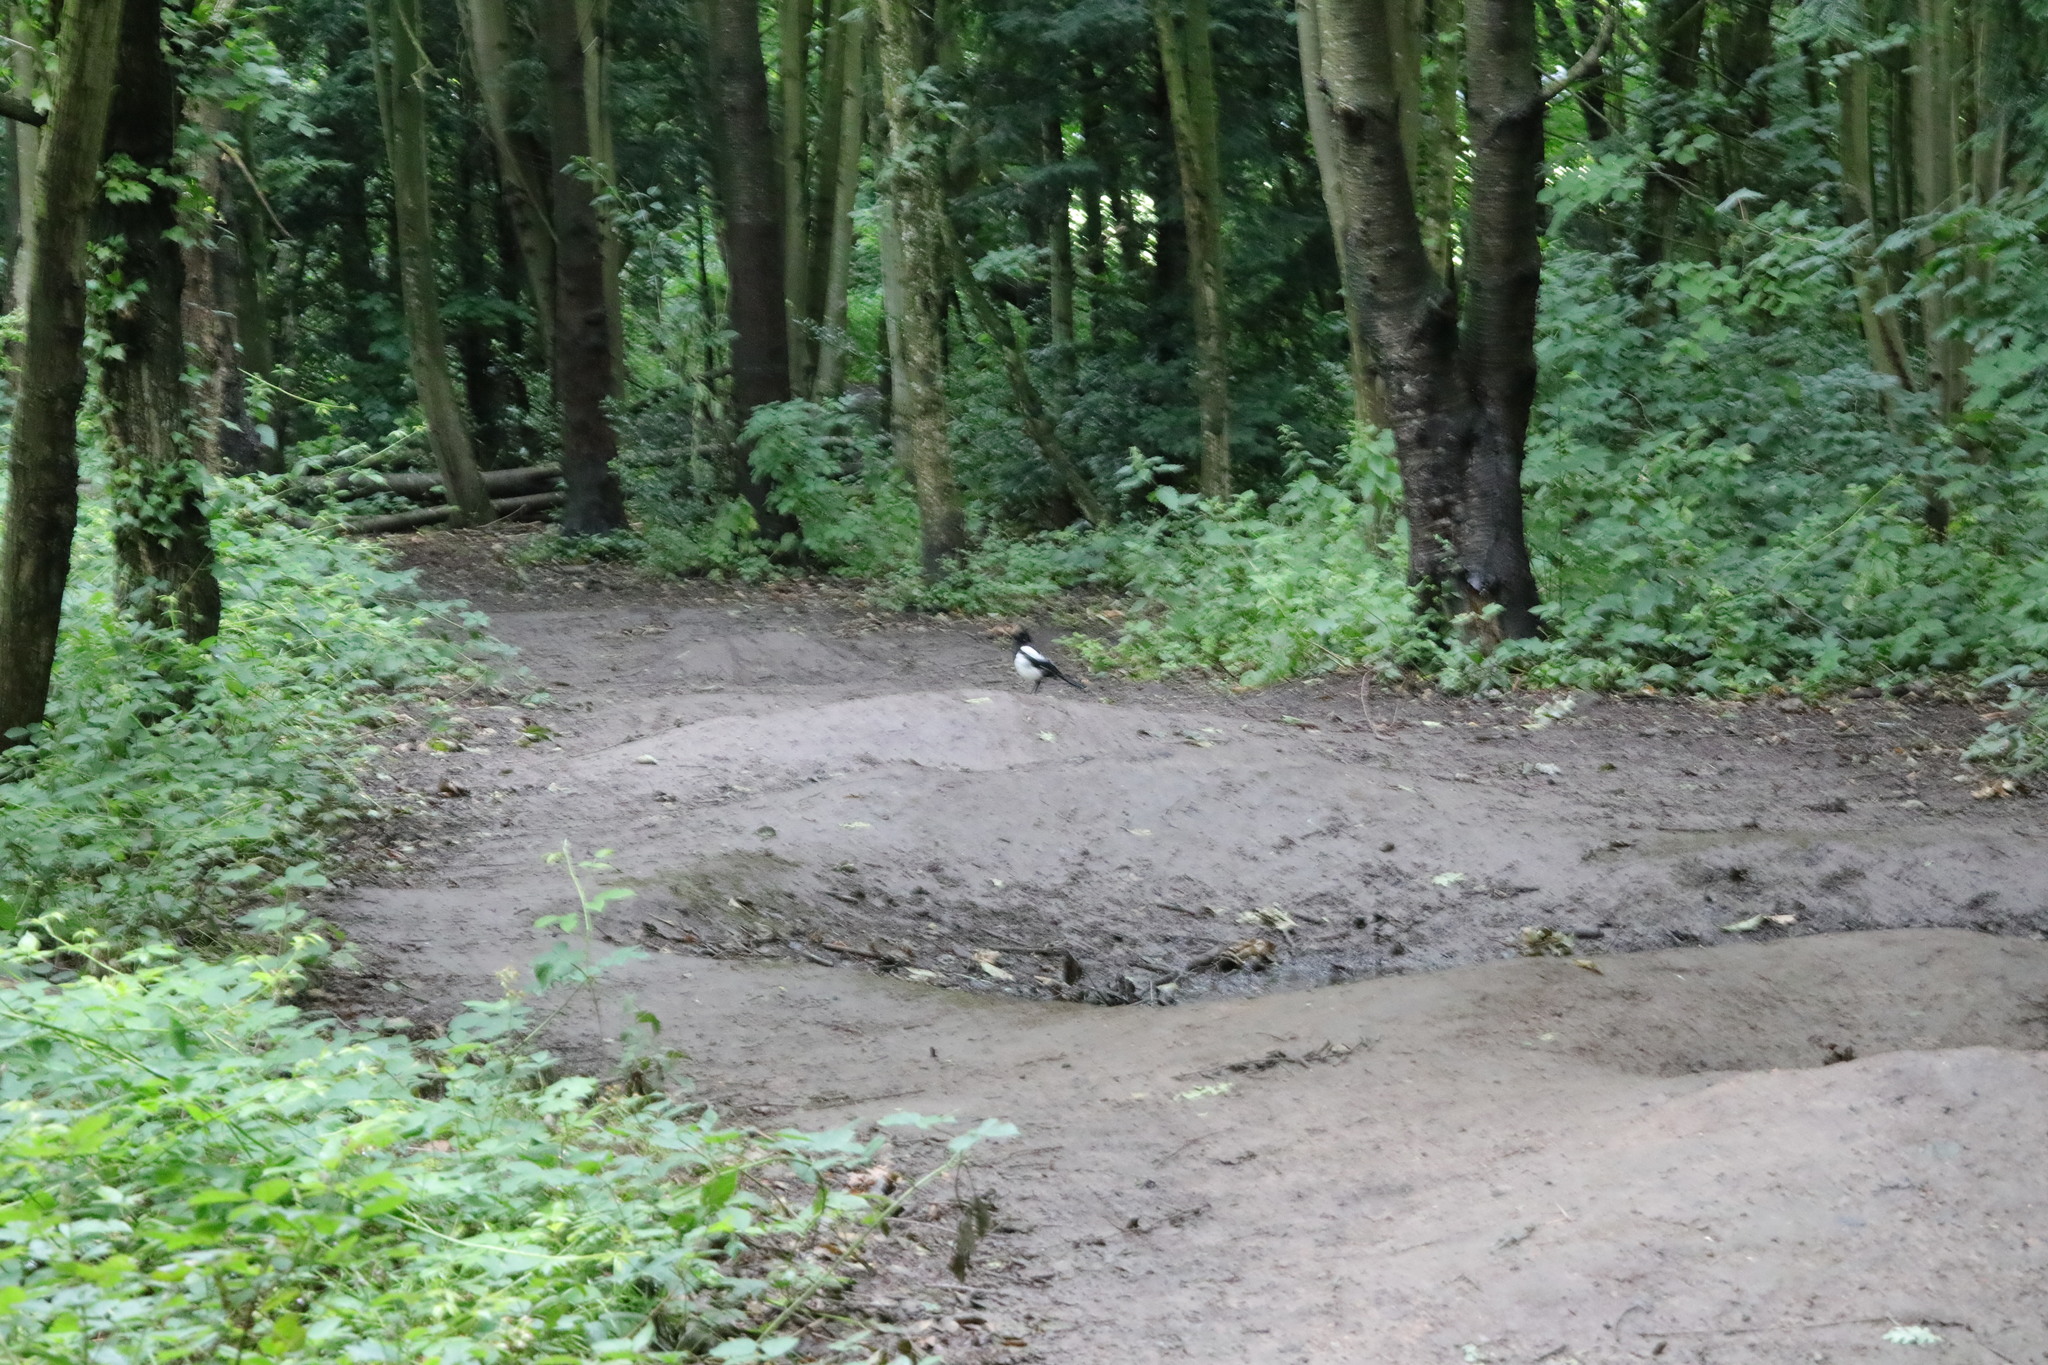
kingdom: Animalia
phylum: Chordata
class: Aves
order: Passeriformes
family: Corvidae
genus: Pica
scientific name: Pica pica
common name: Eurasian magpie
